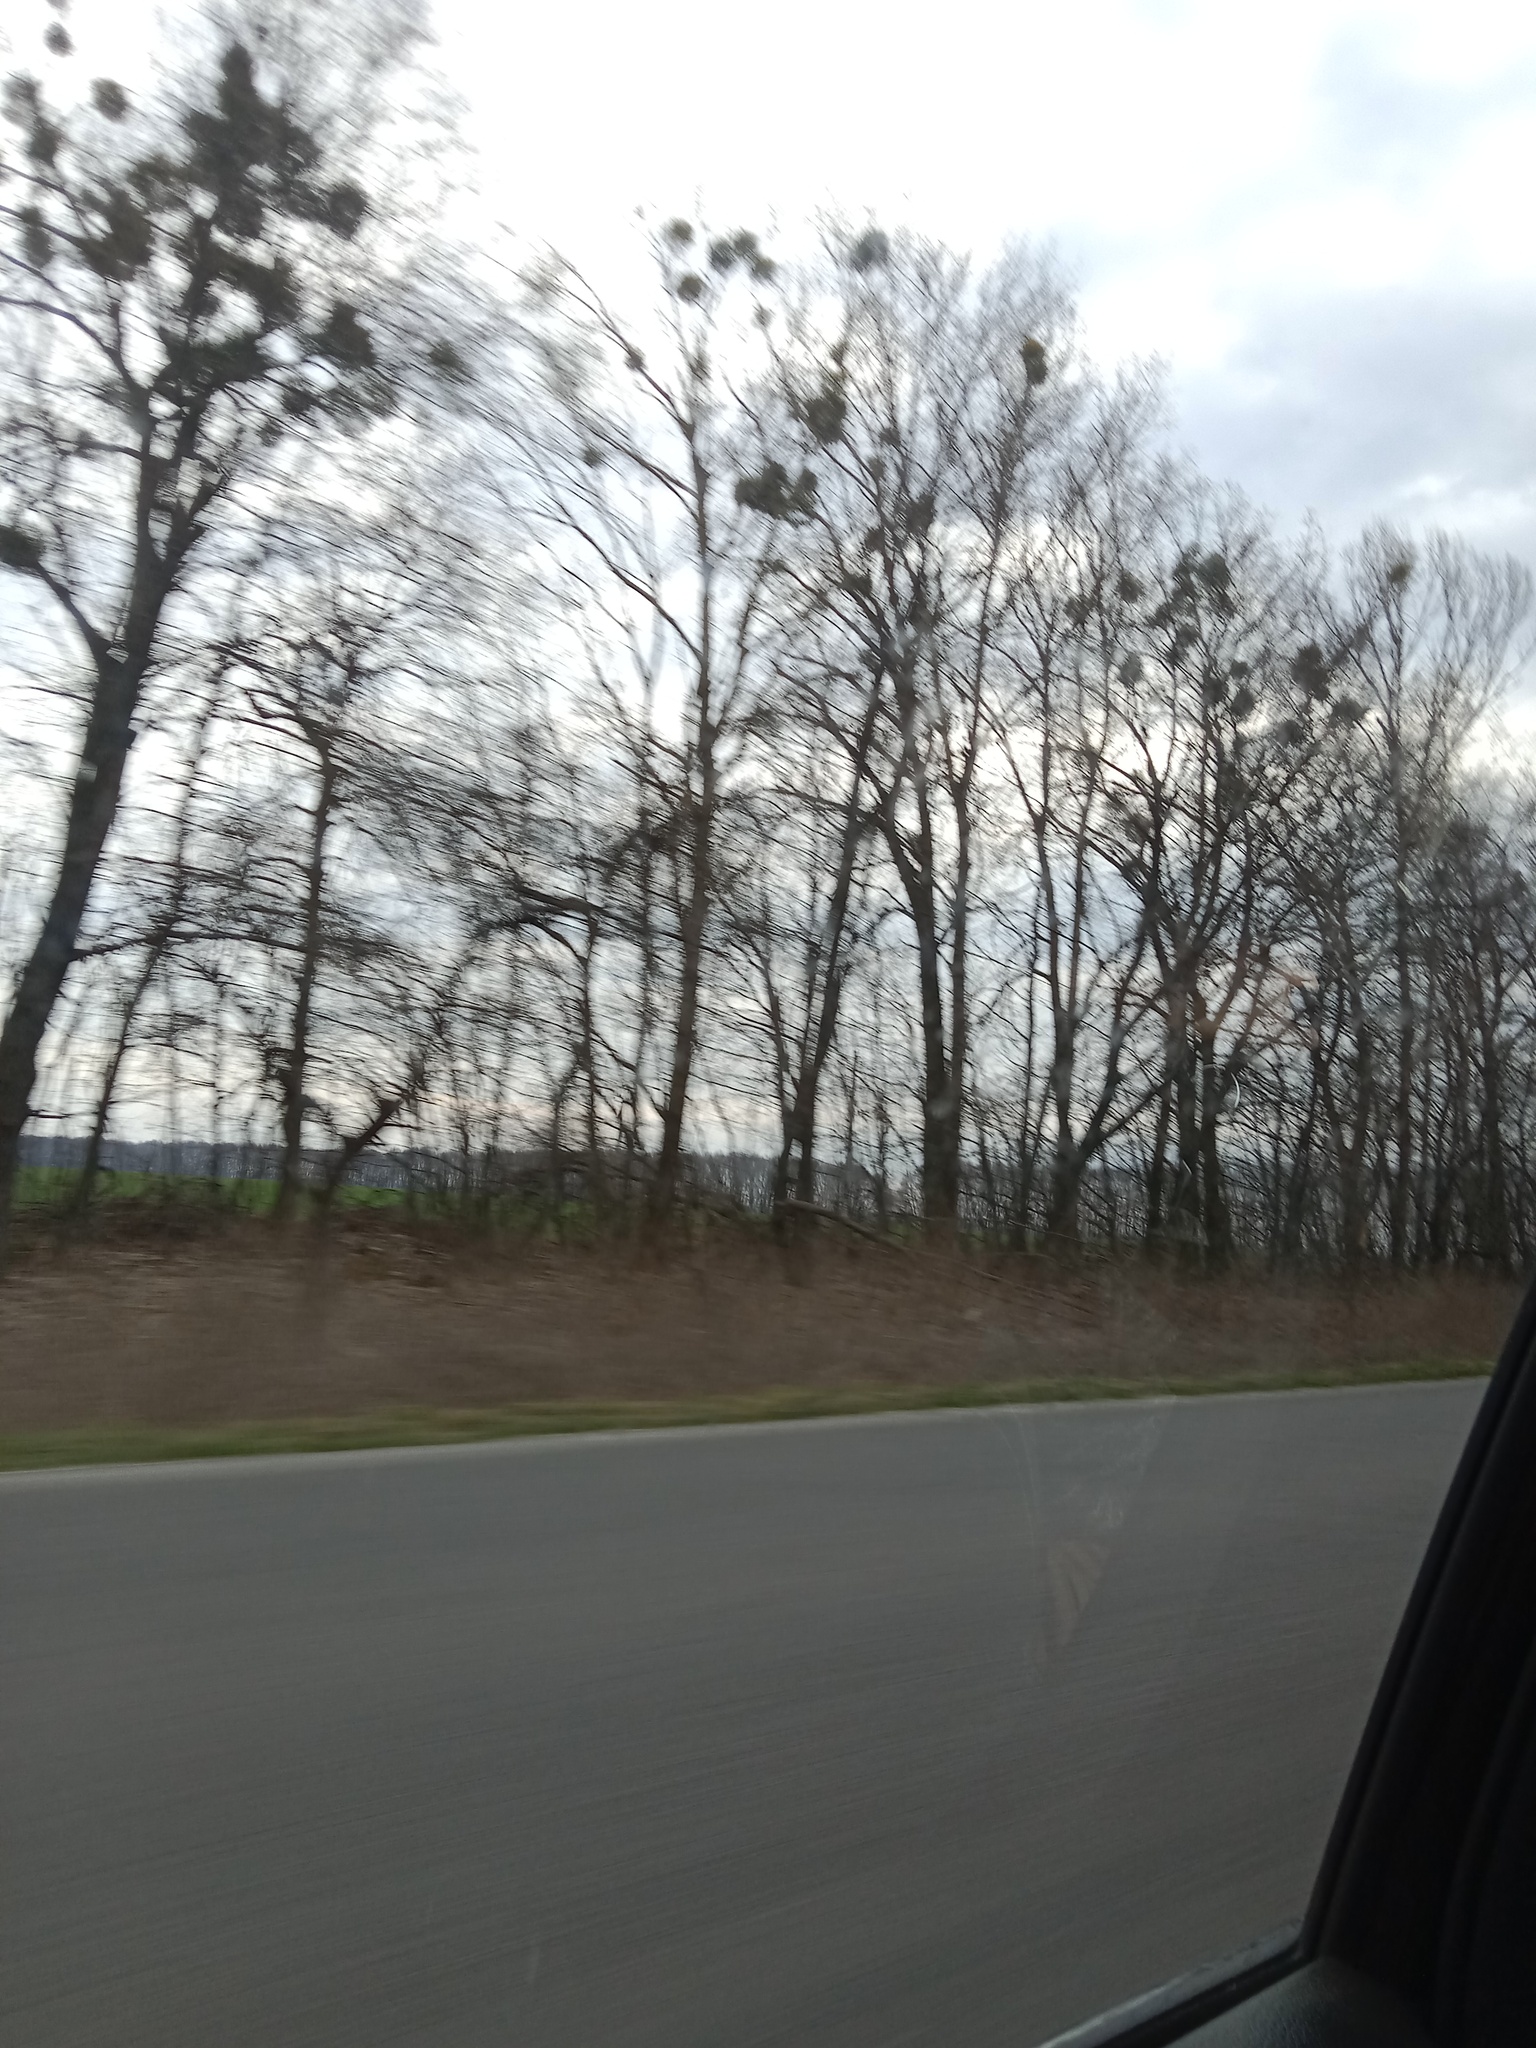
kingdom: Plantae
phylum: Tracheophyta
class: Magnoliopsida
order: Santalales
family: Viscaceae
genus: Viscum
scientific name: Viscum album
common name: Mistletoe
